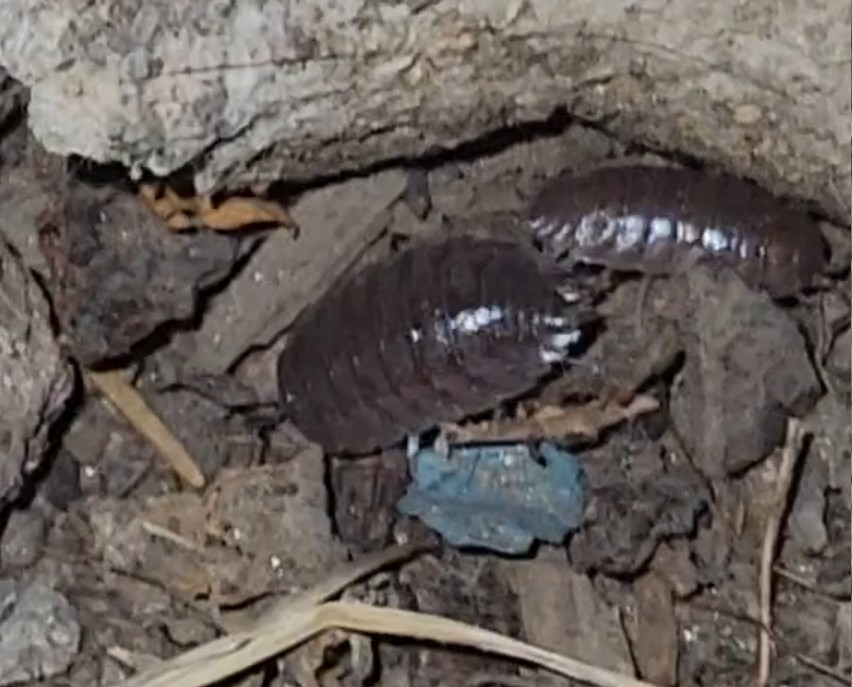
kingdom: Animalia
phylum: Arthropoda
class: Malacostraca
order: Isopoda
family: Porcellionidae
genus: Porcellio
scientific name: Porcellio laevis
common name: Swift woodlouse
